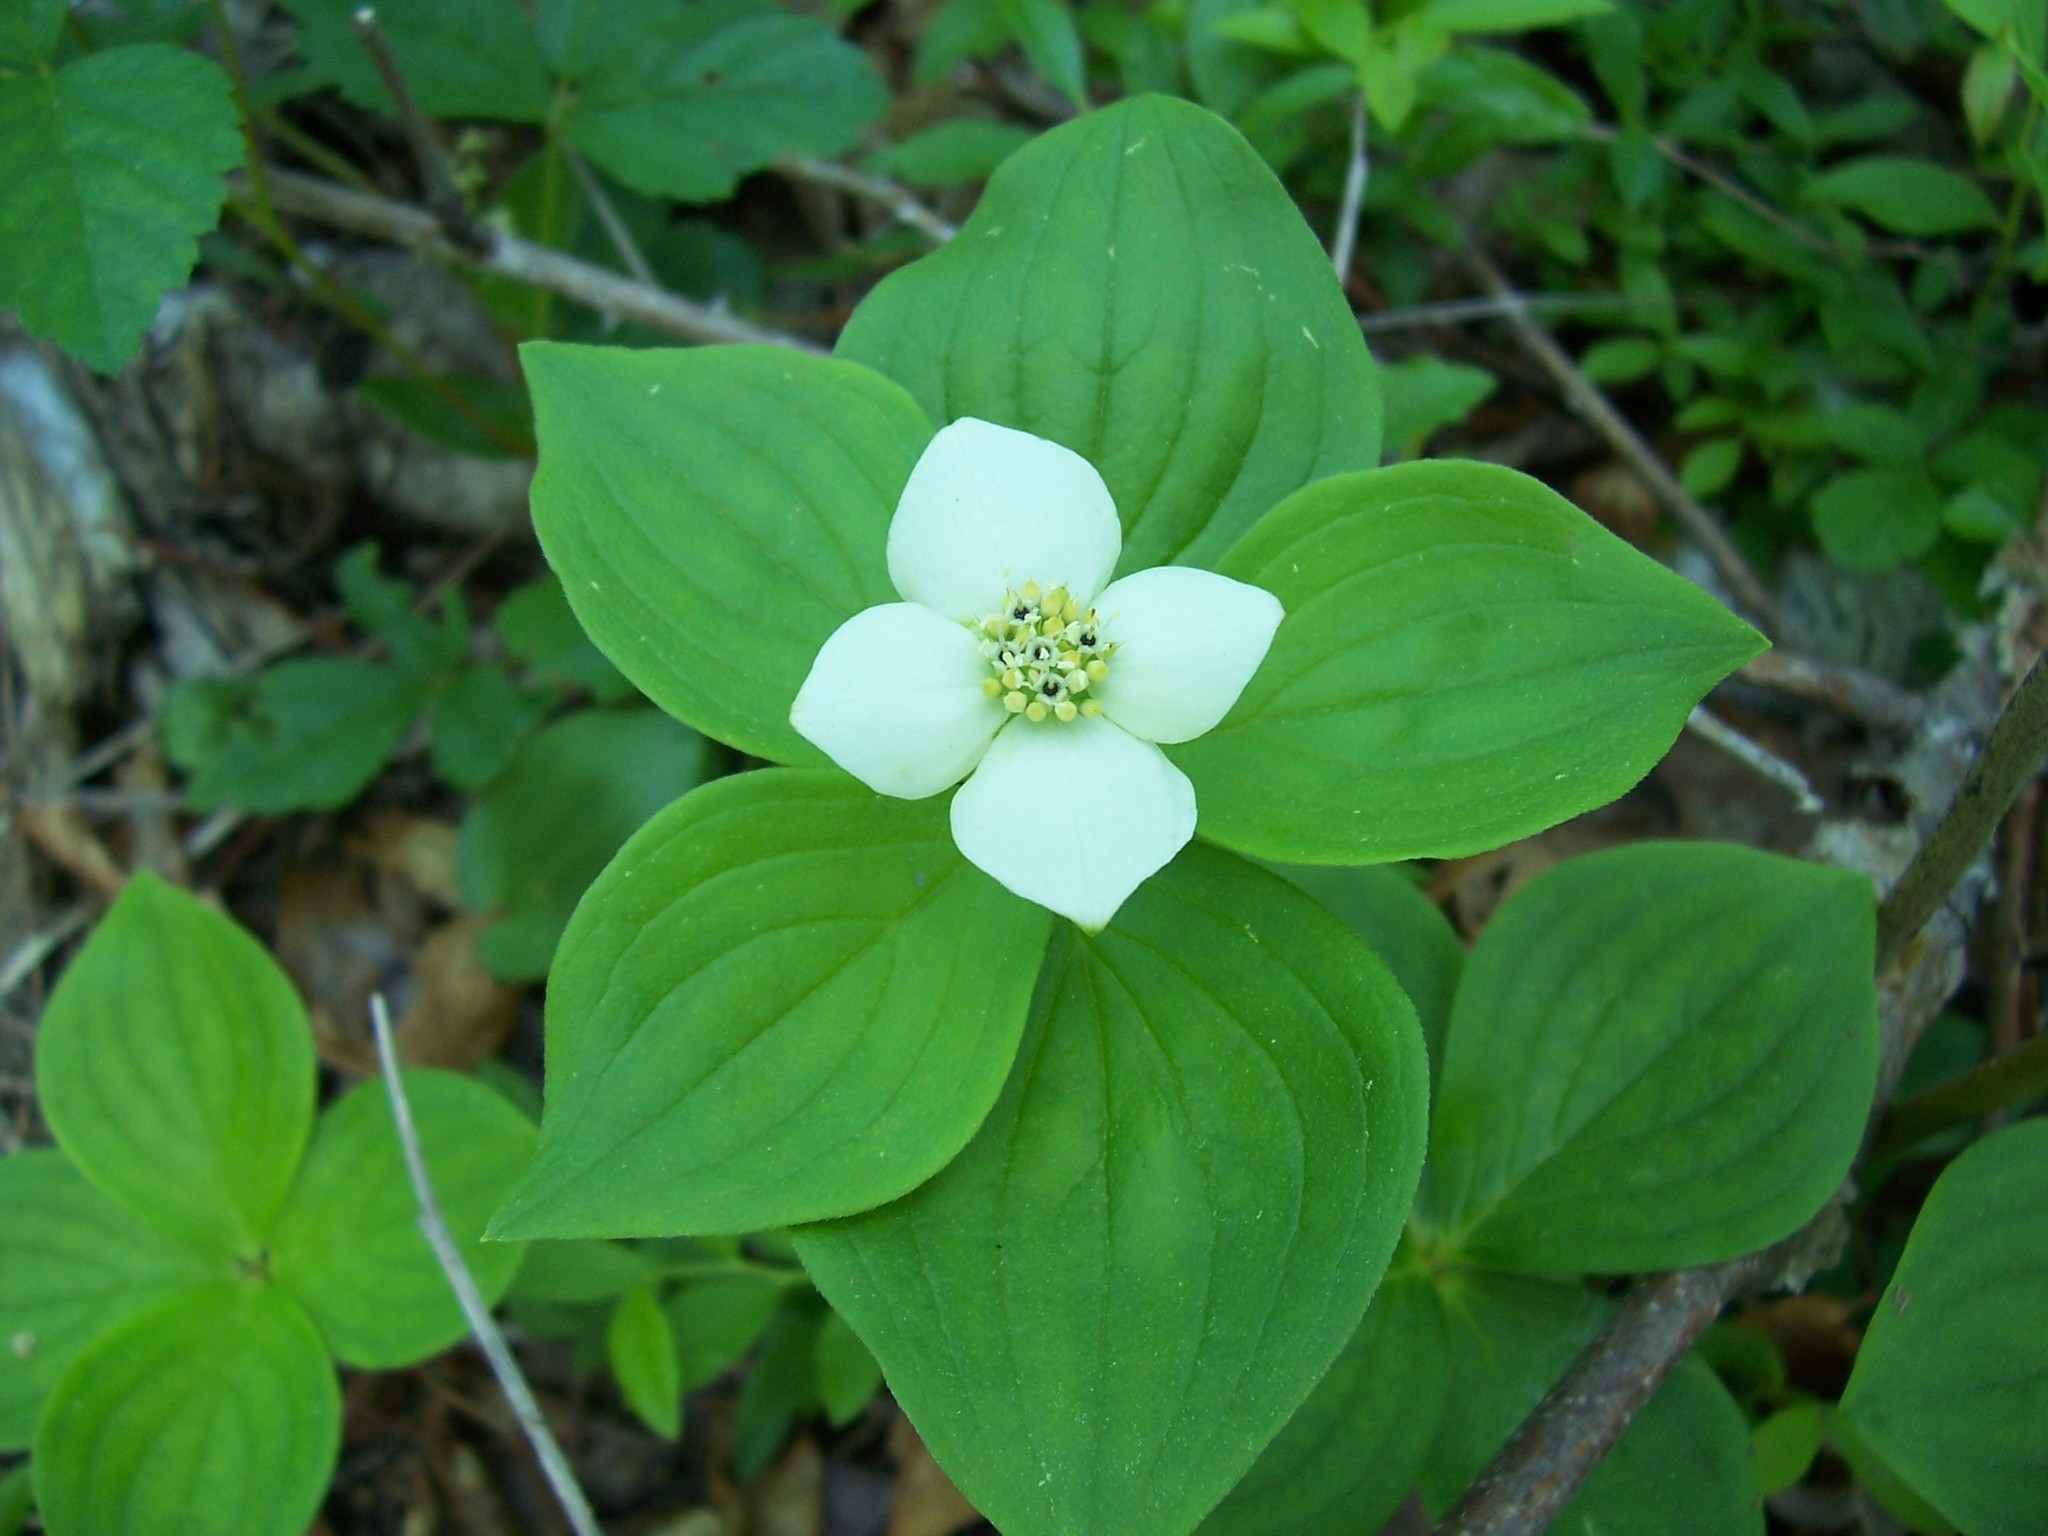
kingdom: Plantae
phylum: Tracheophyta
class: Magnoliopsida
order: Cornales
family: Cornaceae
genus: Cornus
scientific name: Cornus canadensis
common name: Creeping dogwood
